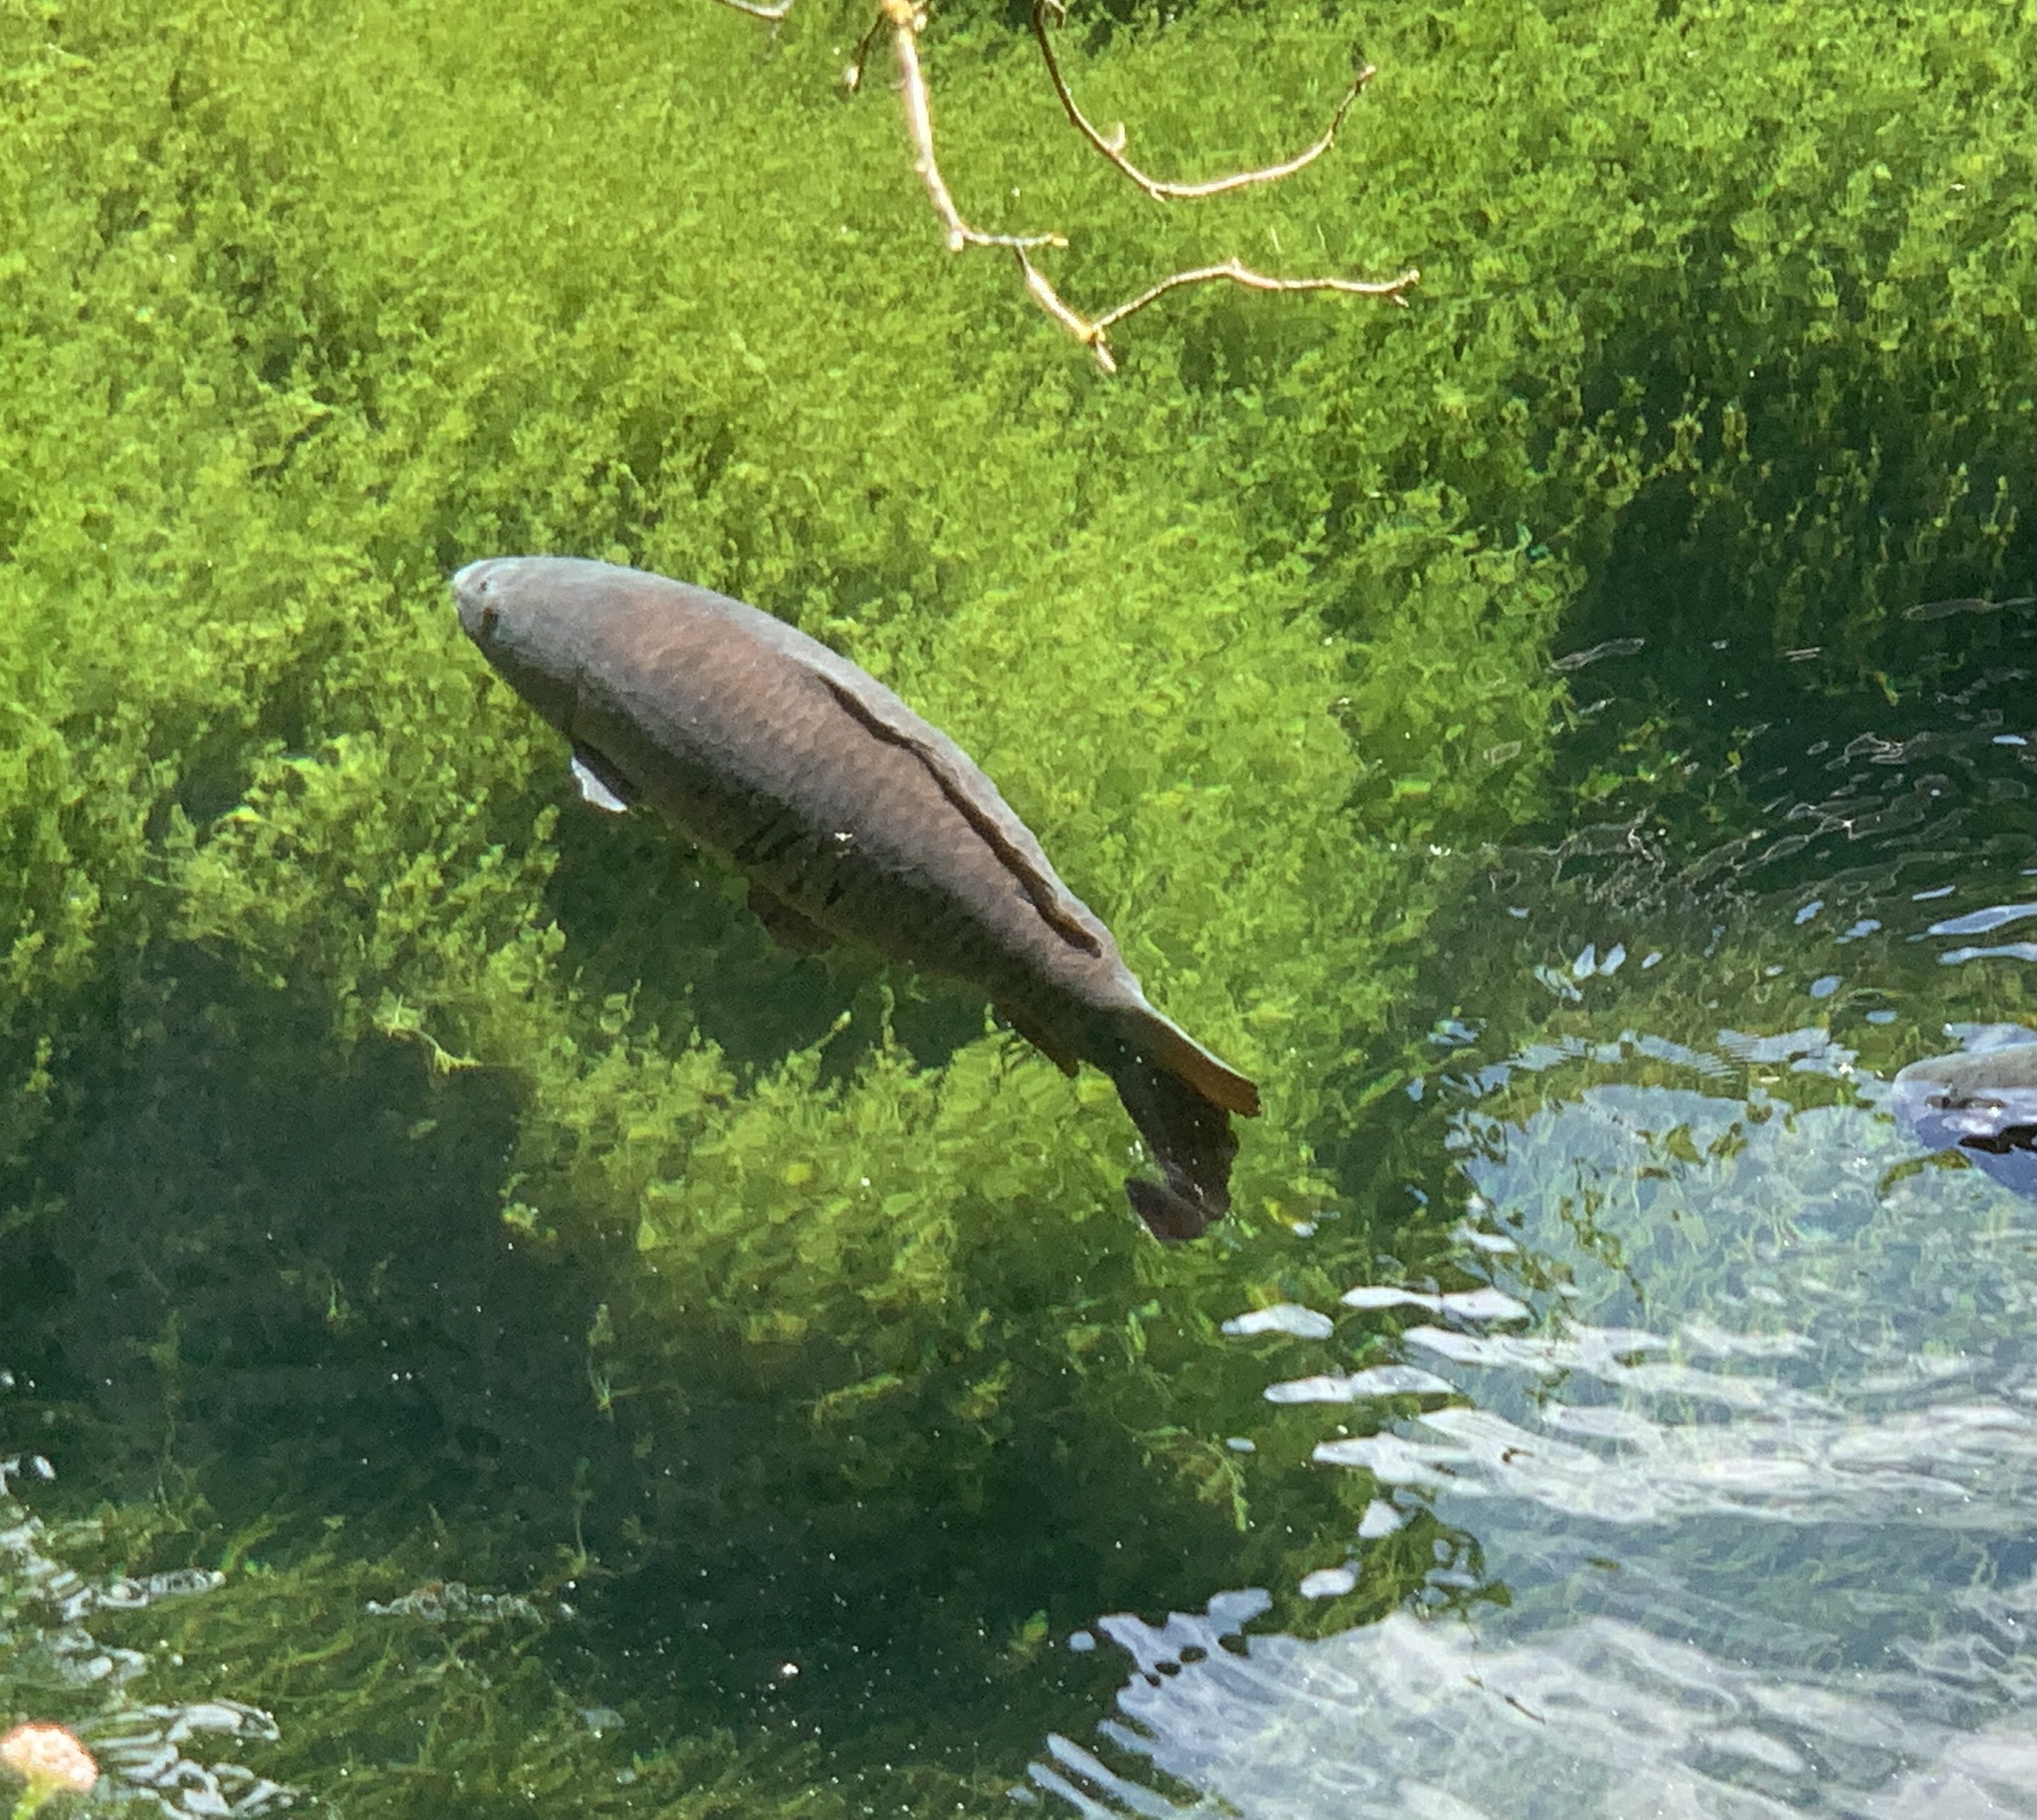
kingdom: Animalia
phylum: Chordata
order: Cypriniformes
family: Cyprinidae
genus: Cyprinus
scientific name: Cyprinus carpio
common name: Common carp
